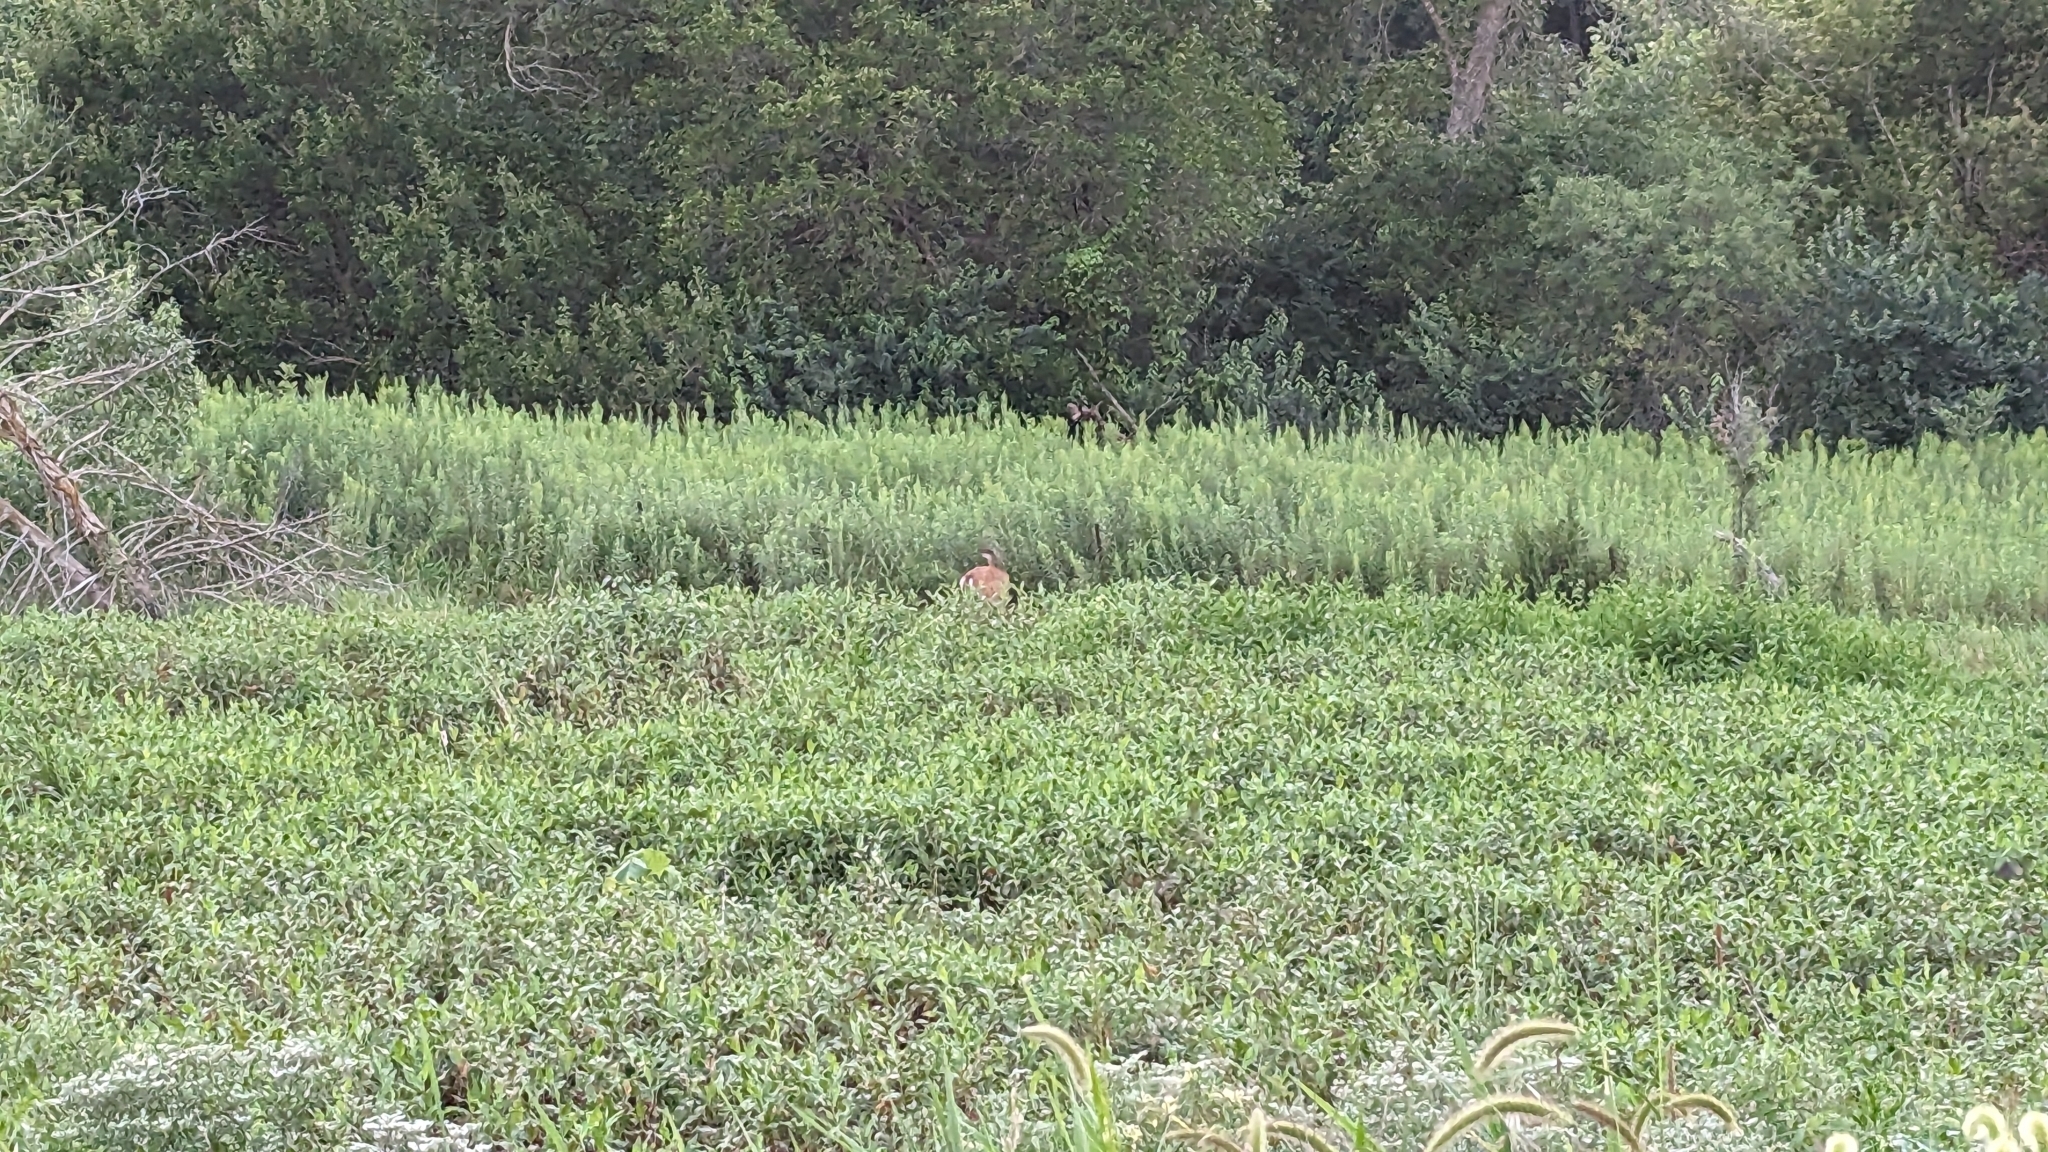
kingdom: Animalia
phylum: Chordata
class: Mammalia
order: Artiodactyla
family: Cervidae
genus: Odocoileus
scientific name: Odocoileus virginianus
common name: White-tailed deer
